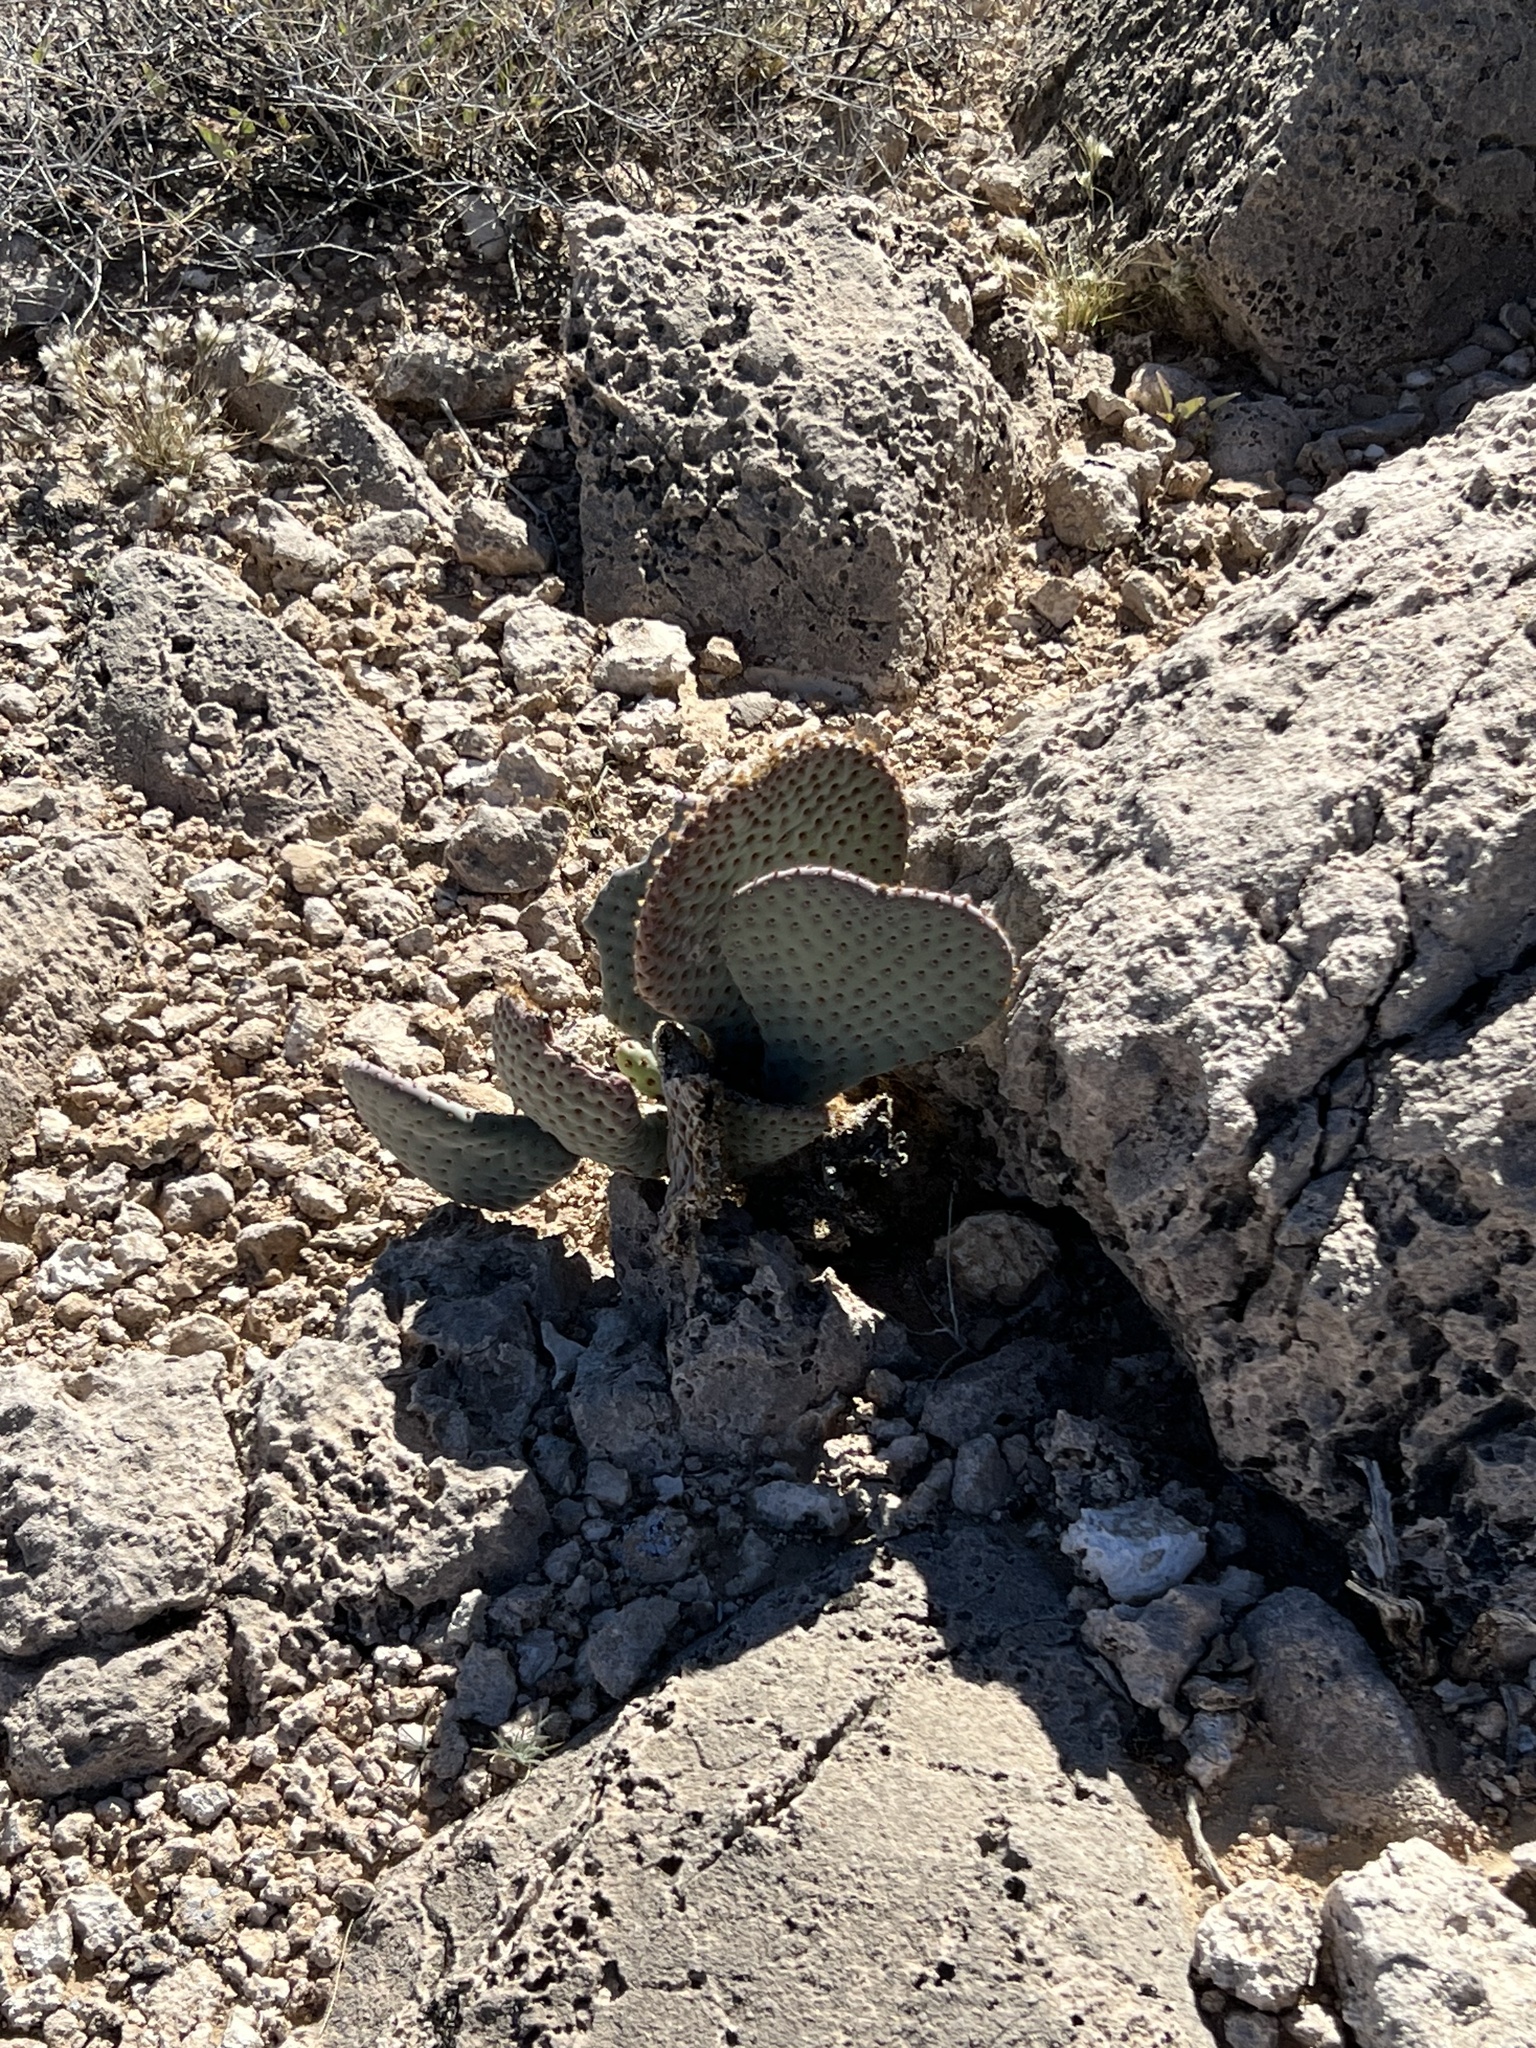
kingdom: Plantae
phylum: Tracheophyta
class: Magnoliopsida
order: Caryophyllales
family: Cactaceae
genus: Opuntia
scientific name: Opuntia basilaris
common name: Beavertail prickly-pear
